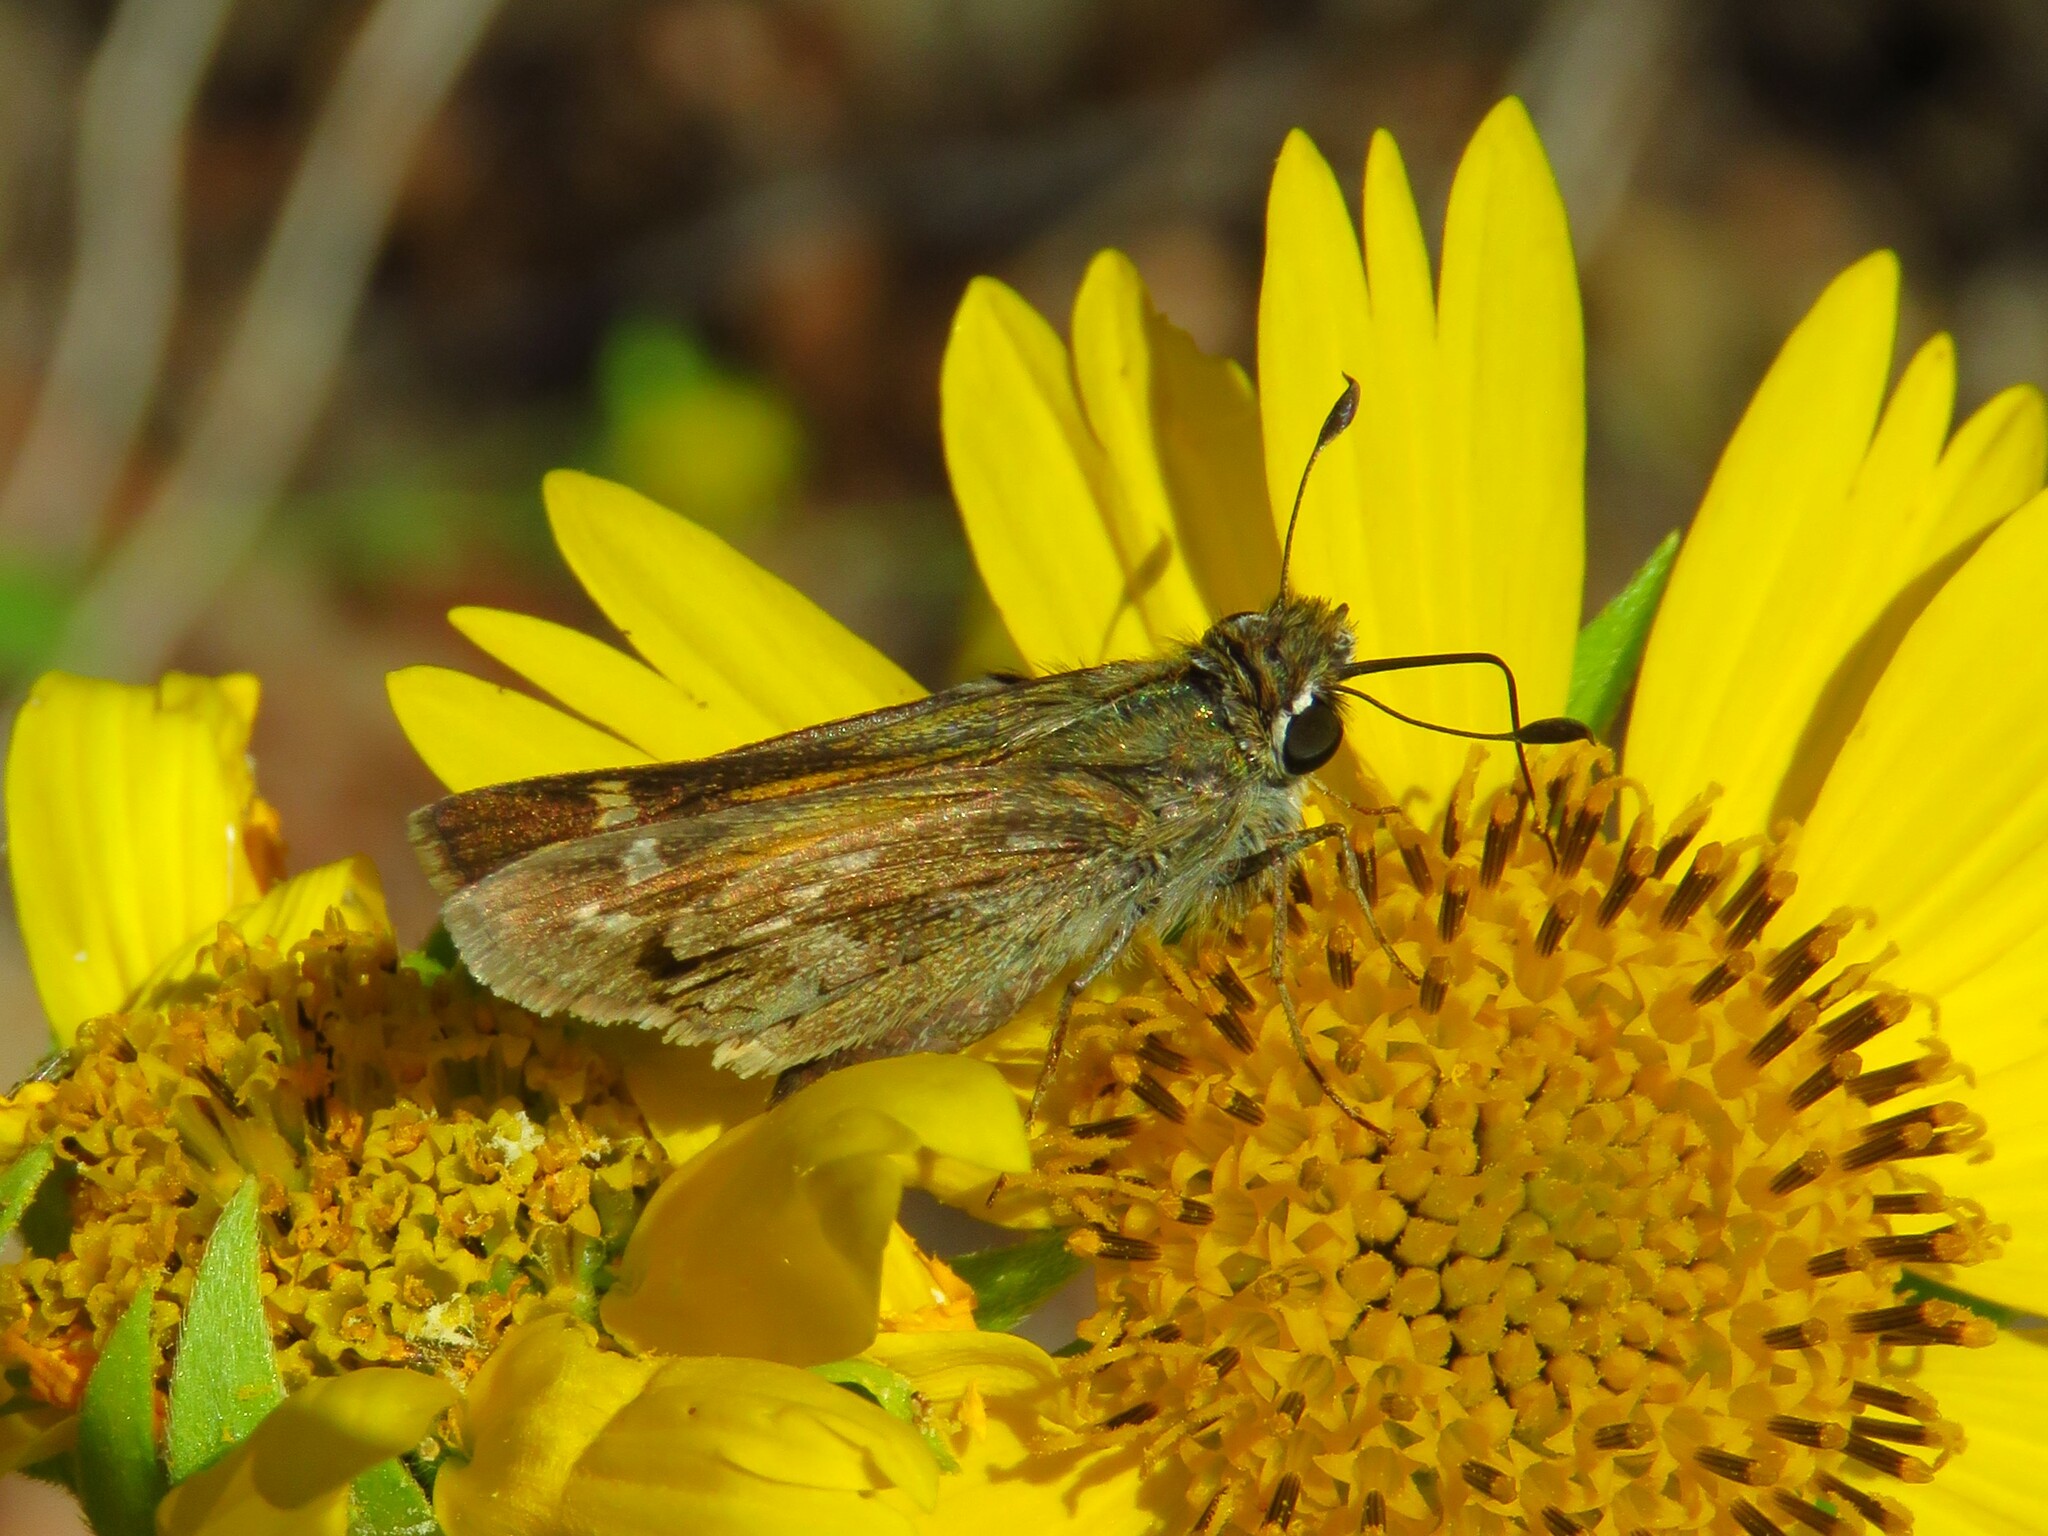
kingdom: Animalia
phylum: Arthropoda
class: Insecta
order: Lepidoptera
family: Hesperiidae
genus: Atalopedes
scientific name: Atalopedes
